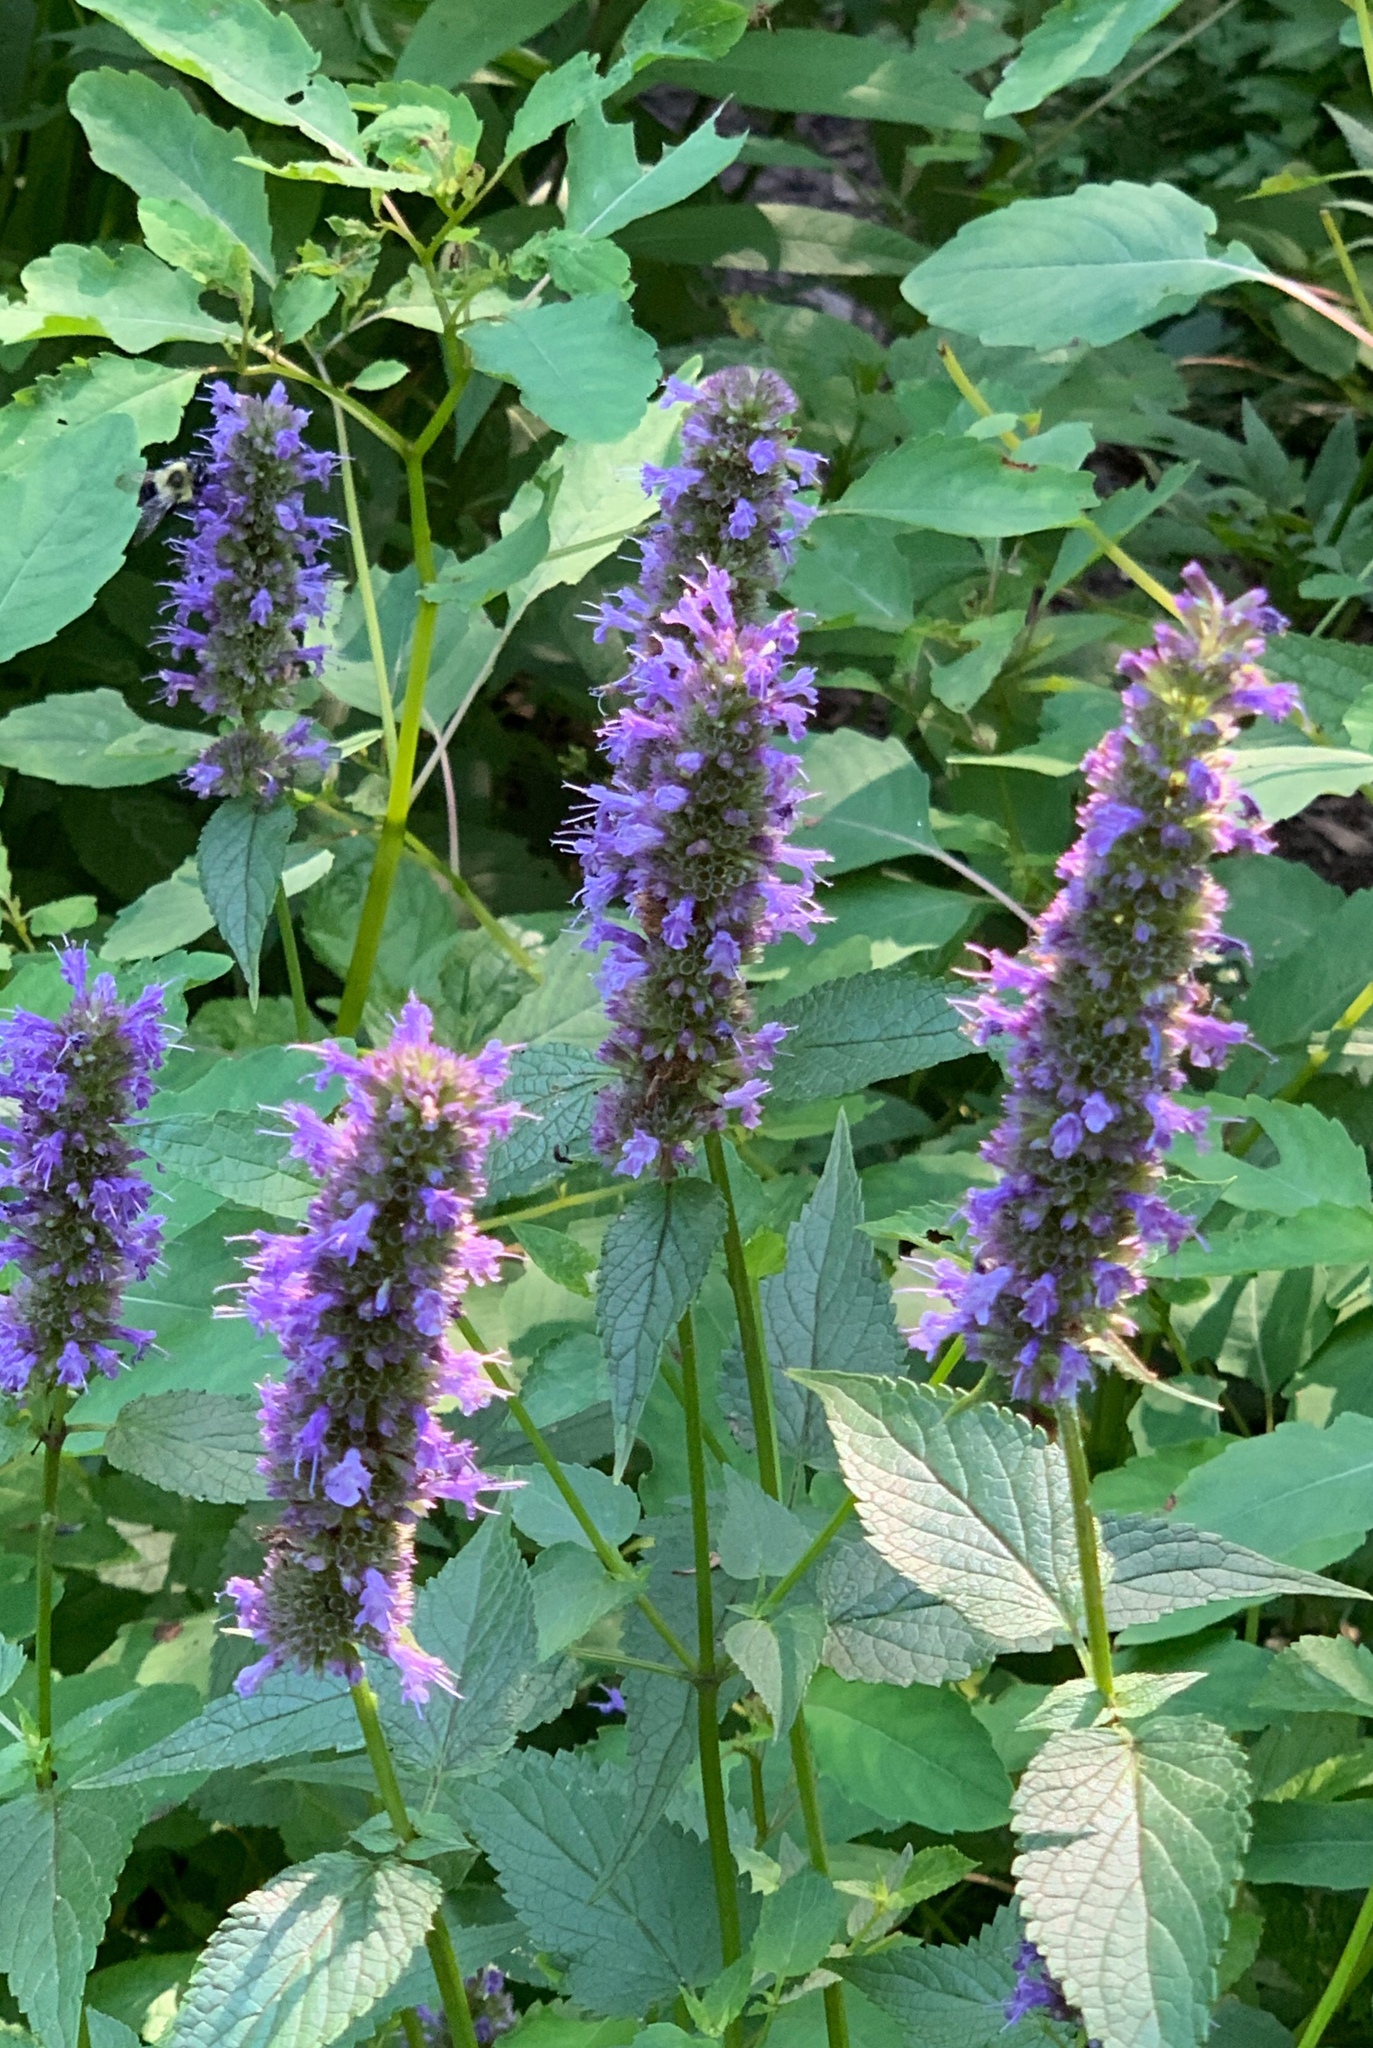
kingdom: Plantae
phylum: Tracheophyta
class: Magnoliopsida
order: Lamiales
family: Lamiaceae
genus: Agastache
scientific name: Agastache foeniculum
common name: Anise hyssop
